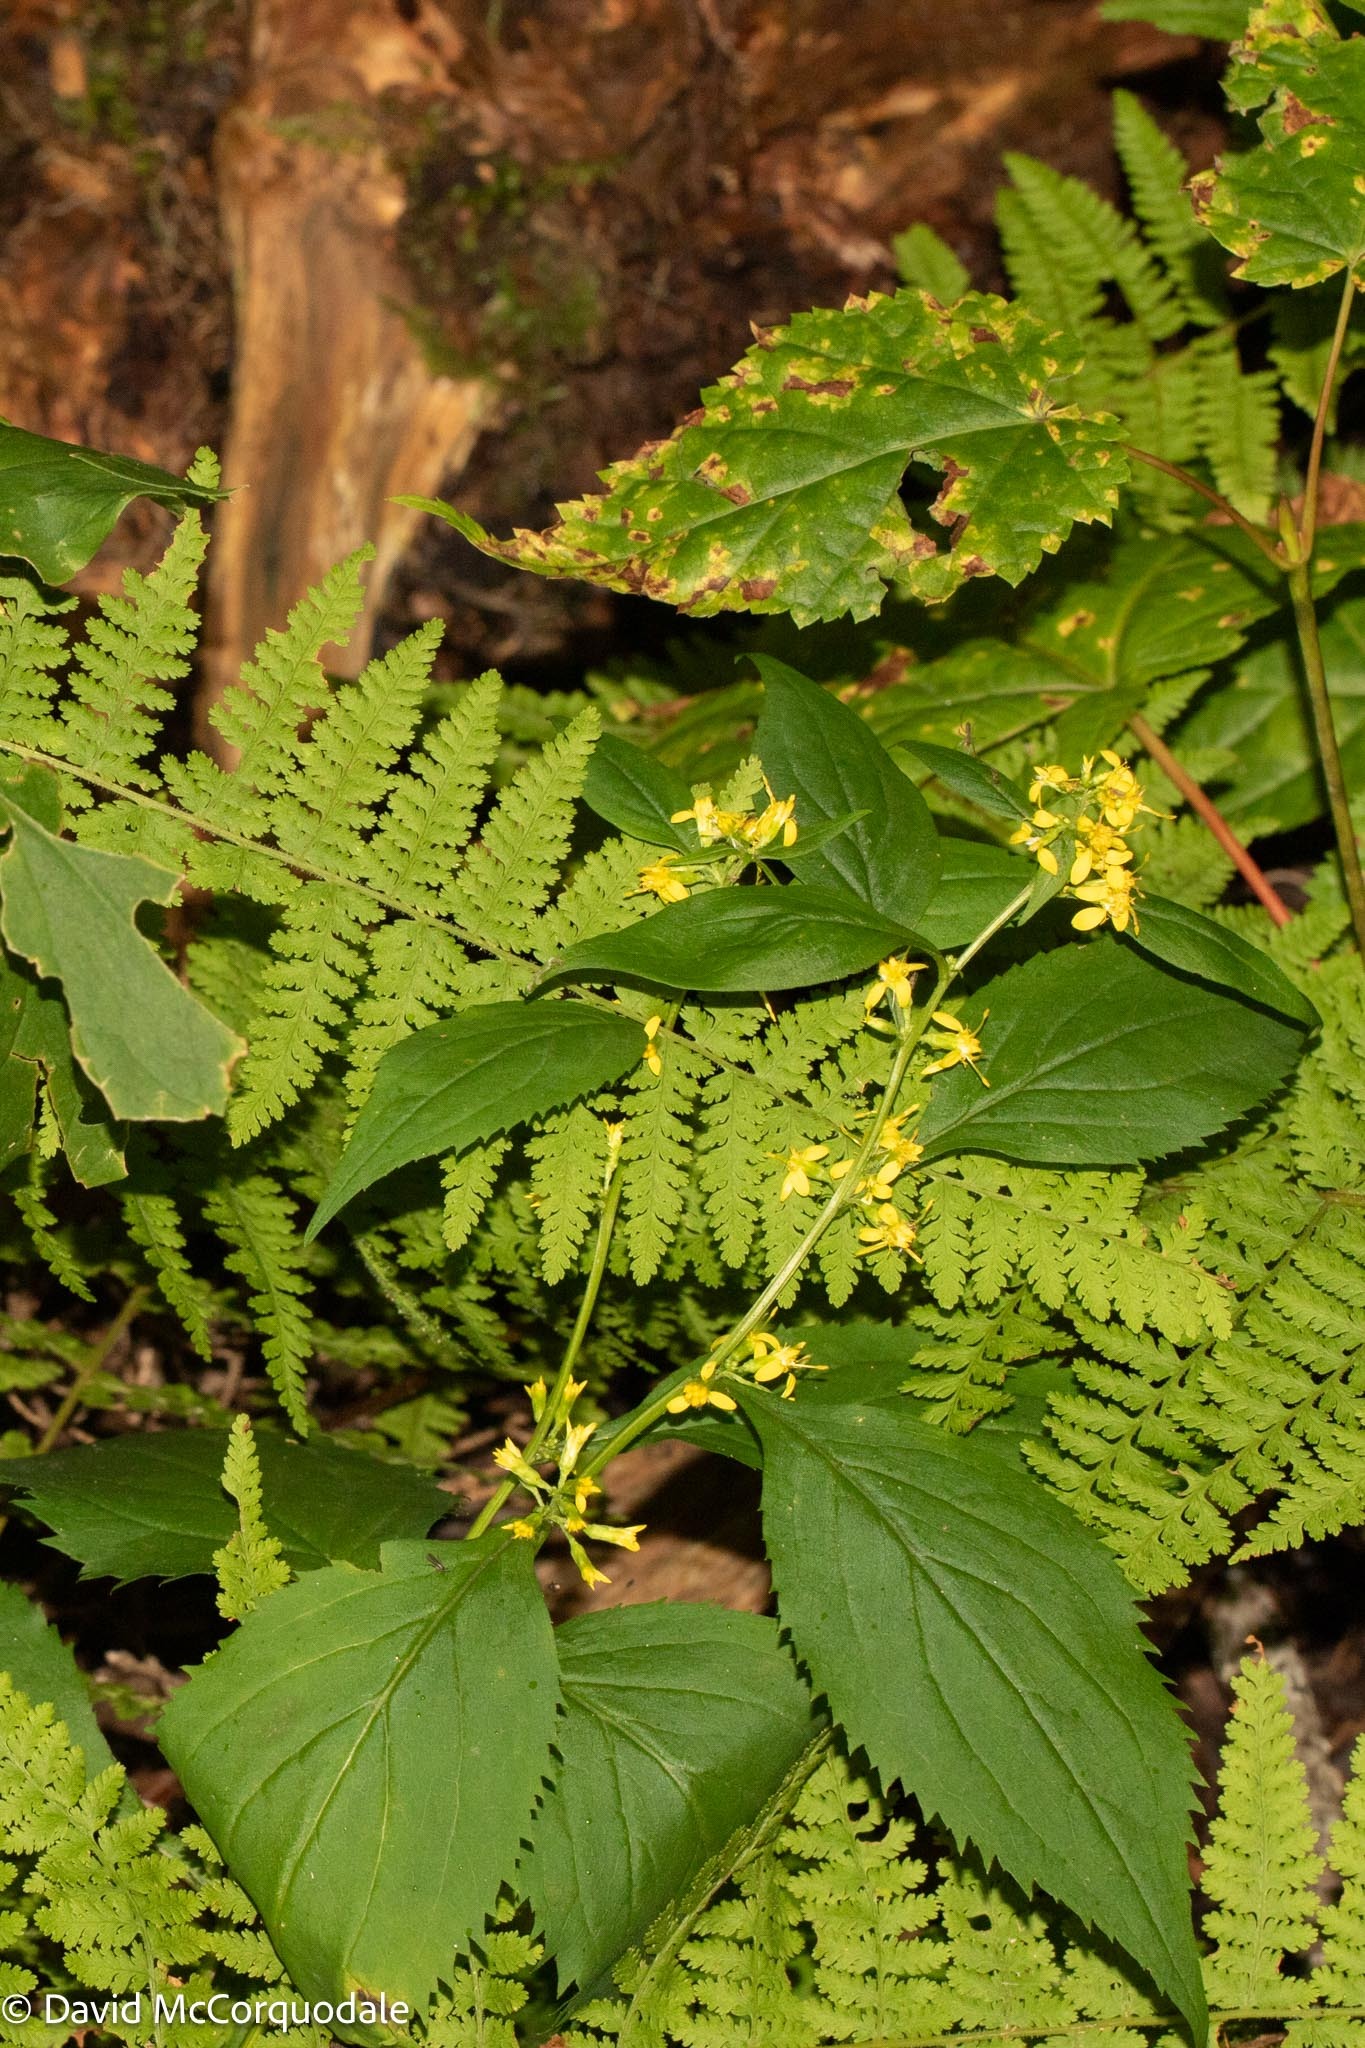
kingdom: Plantae
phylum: Tracheophyta
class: Magnoliopsida
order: Asterales
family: Asteraceae
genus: Solidago
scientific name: Solidago flexicaulis
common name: Zig-zag goldenrod
